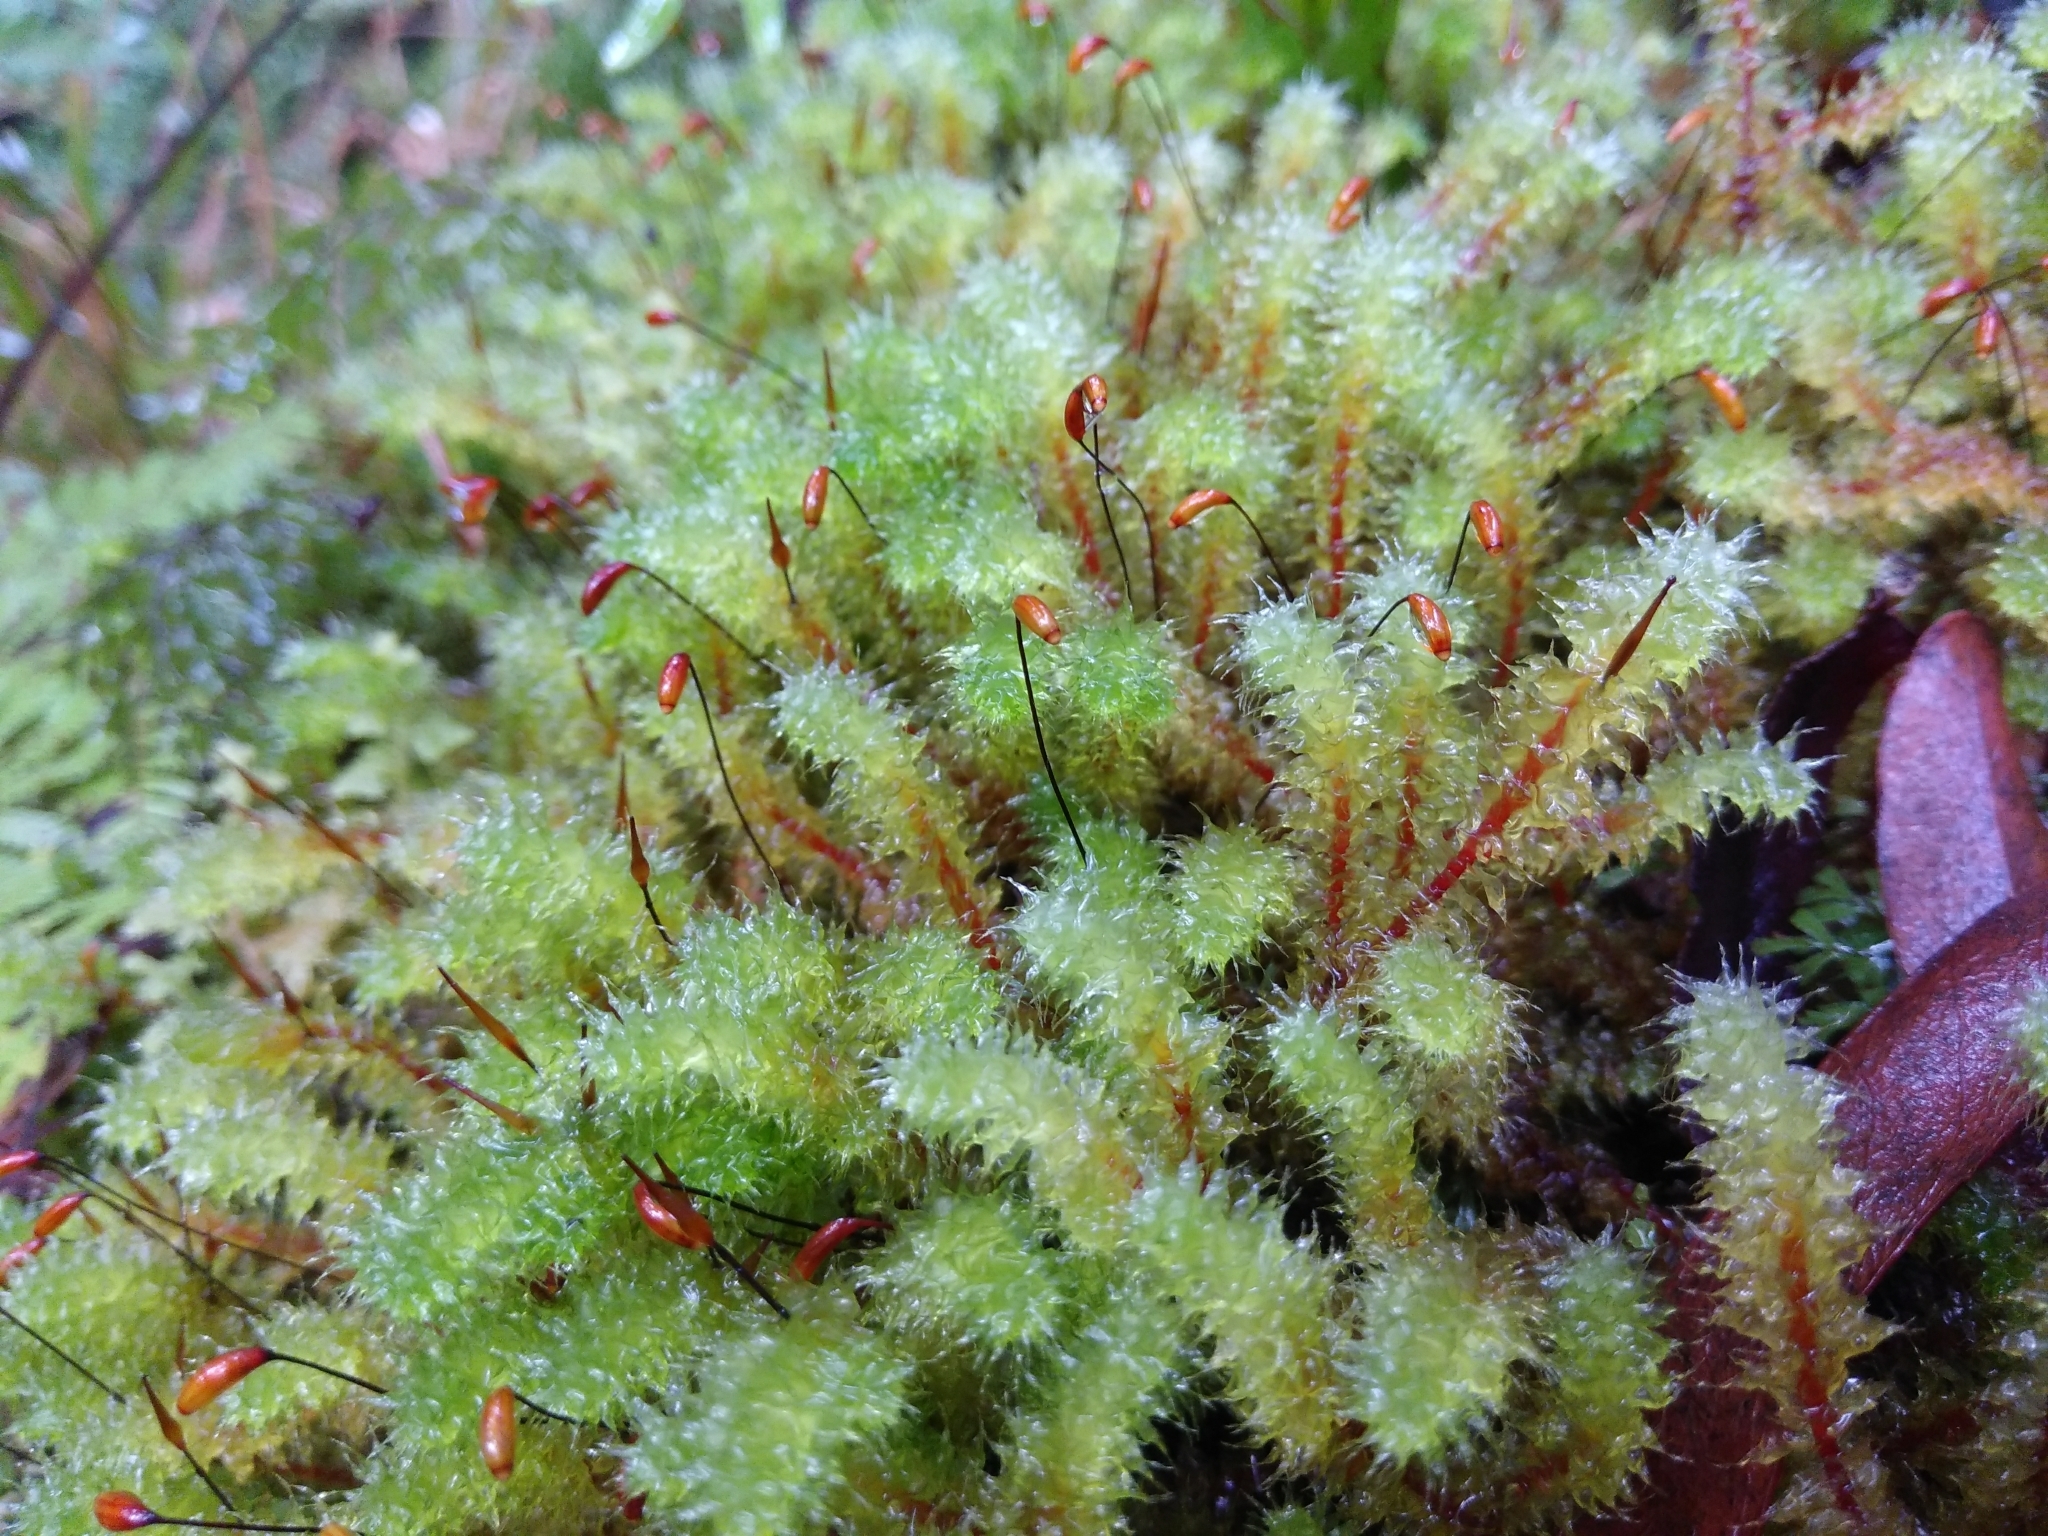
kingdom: Plantae
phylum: Bryophyta
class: Bryopsida
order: Ptychomniales
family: Ptychomniaceae
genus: Ptychomnion
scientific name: Ptychomnion aciculare
